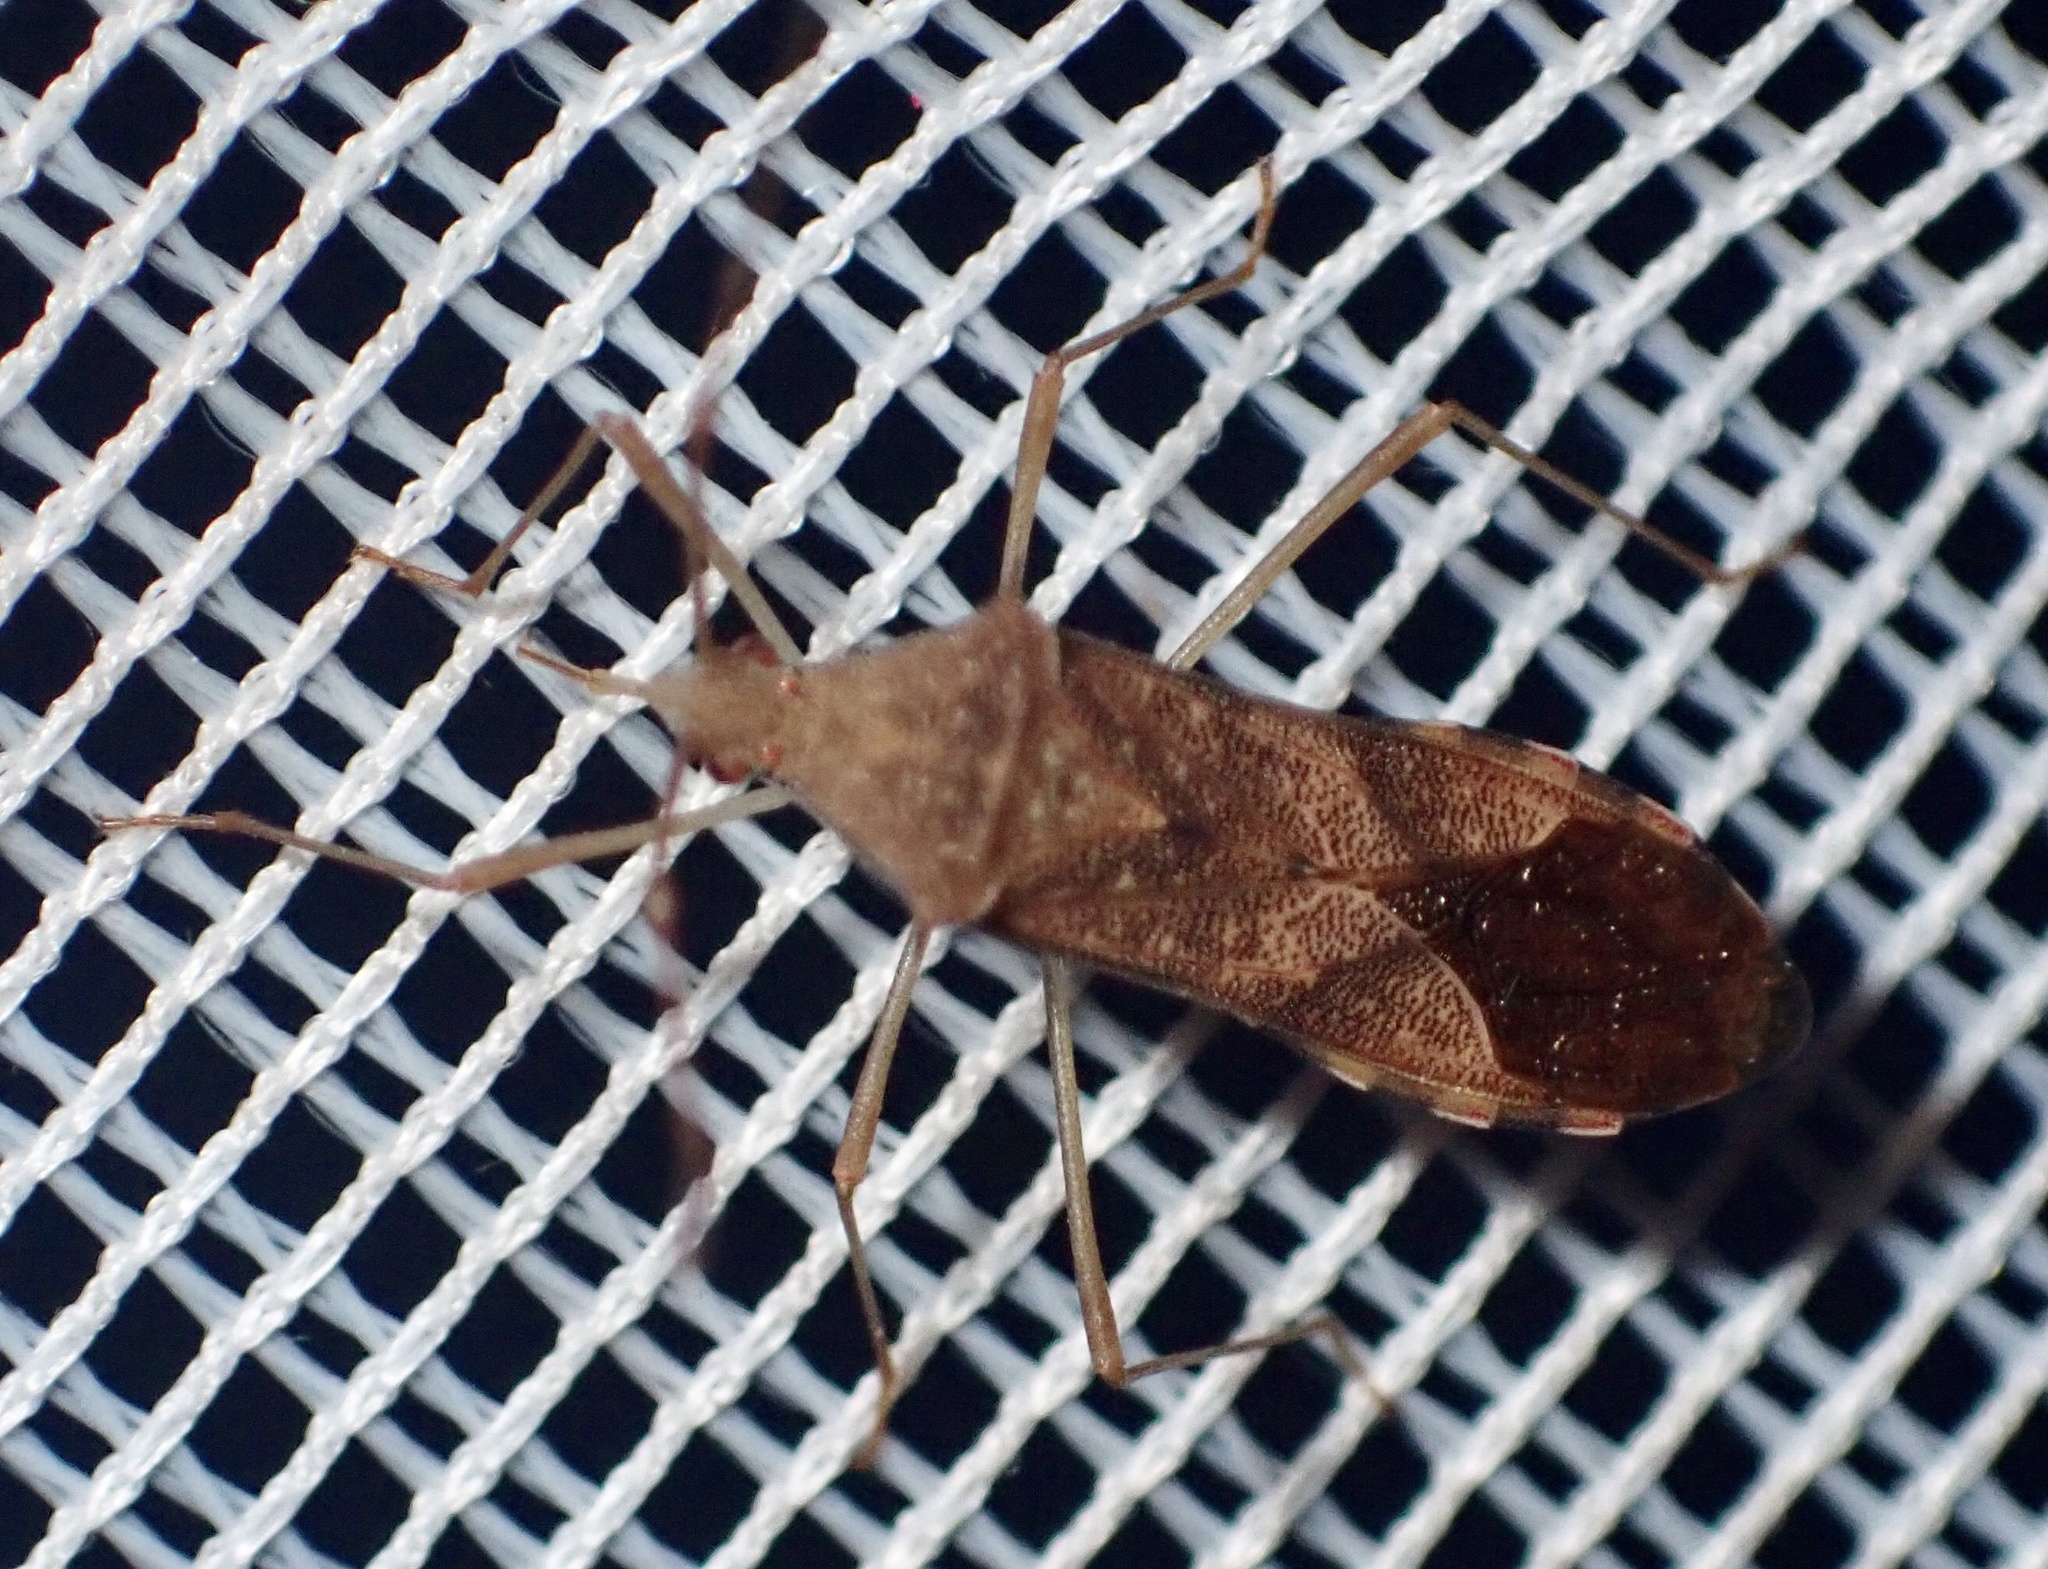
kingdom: Animalia
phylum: Arthropoda
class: Insecta
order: Hemiptera
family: Coreidae
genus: Hydara
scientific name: Hydara tenuicornis
